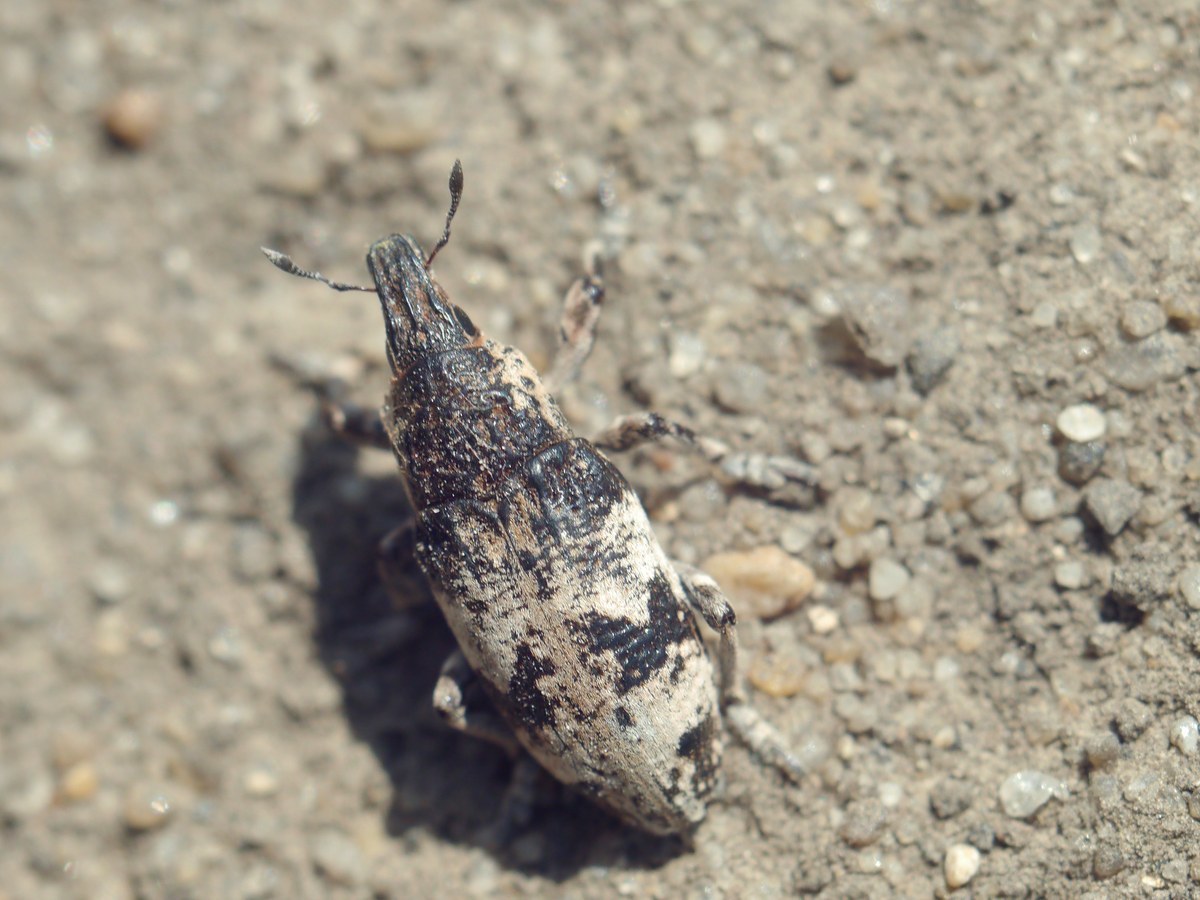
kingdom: Animalia
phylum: Arthropoda
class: Insecta
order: Coleoptera
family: Curculionidae
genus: Bothynoderes
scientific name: Bothynoderes affinis
